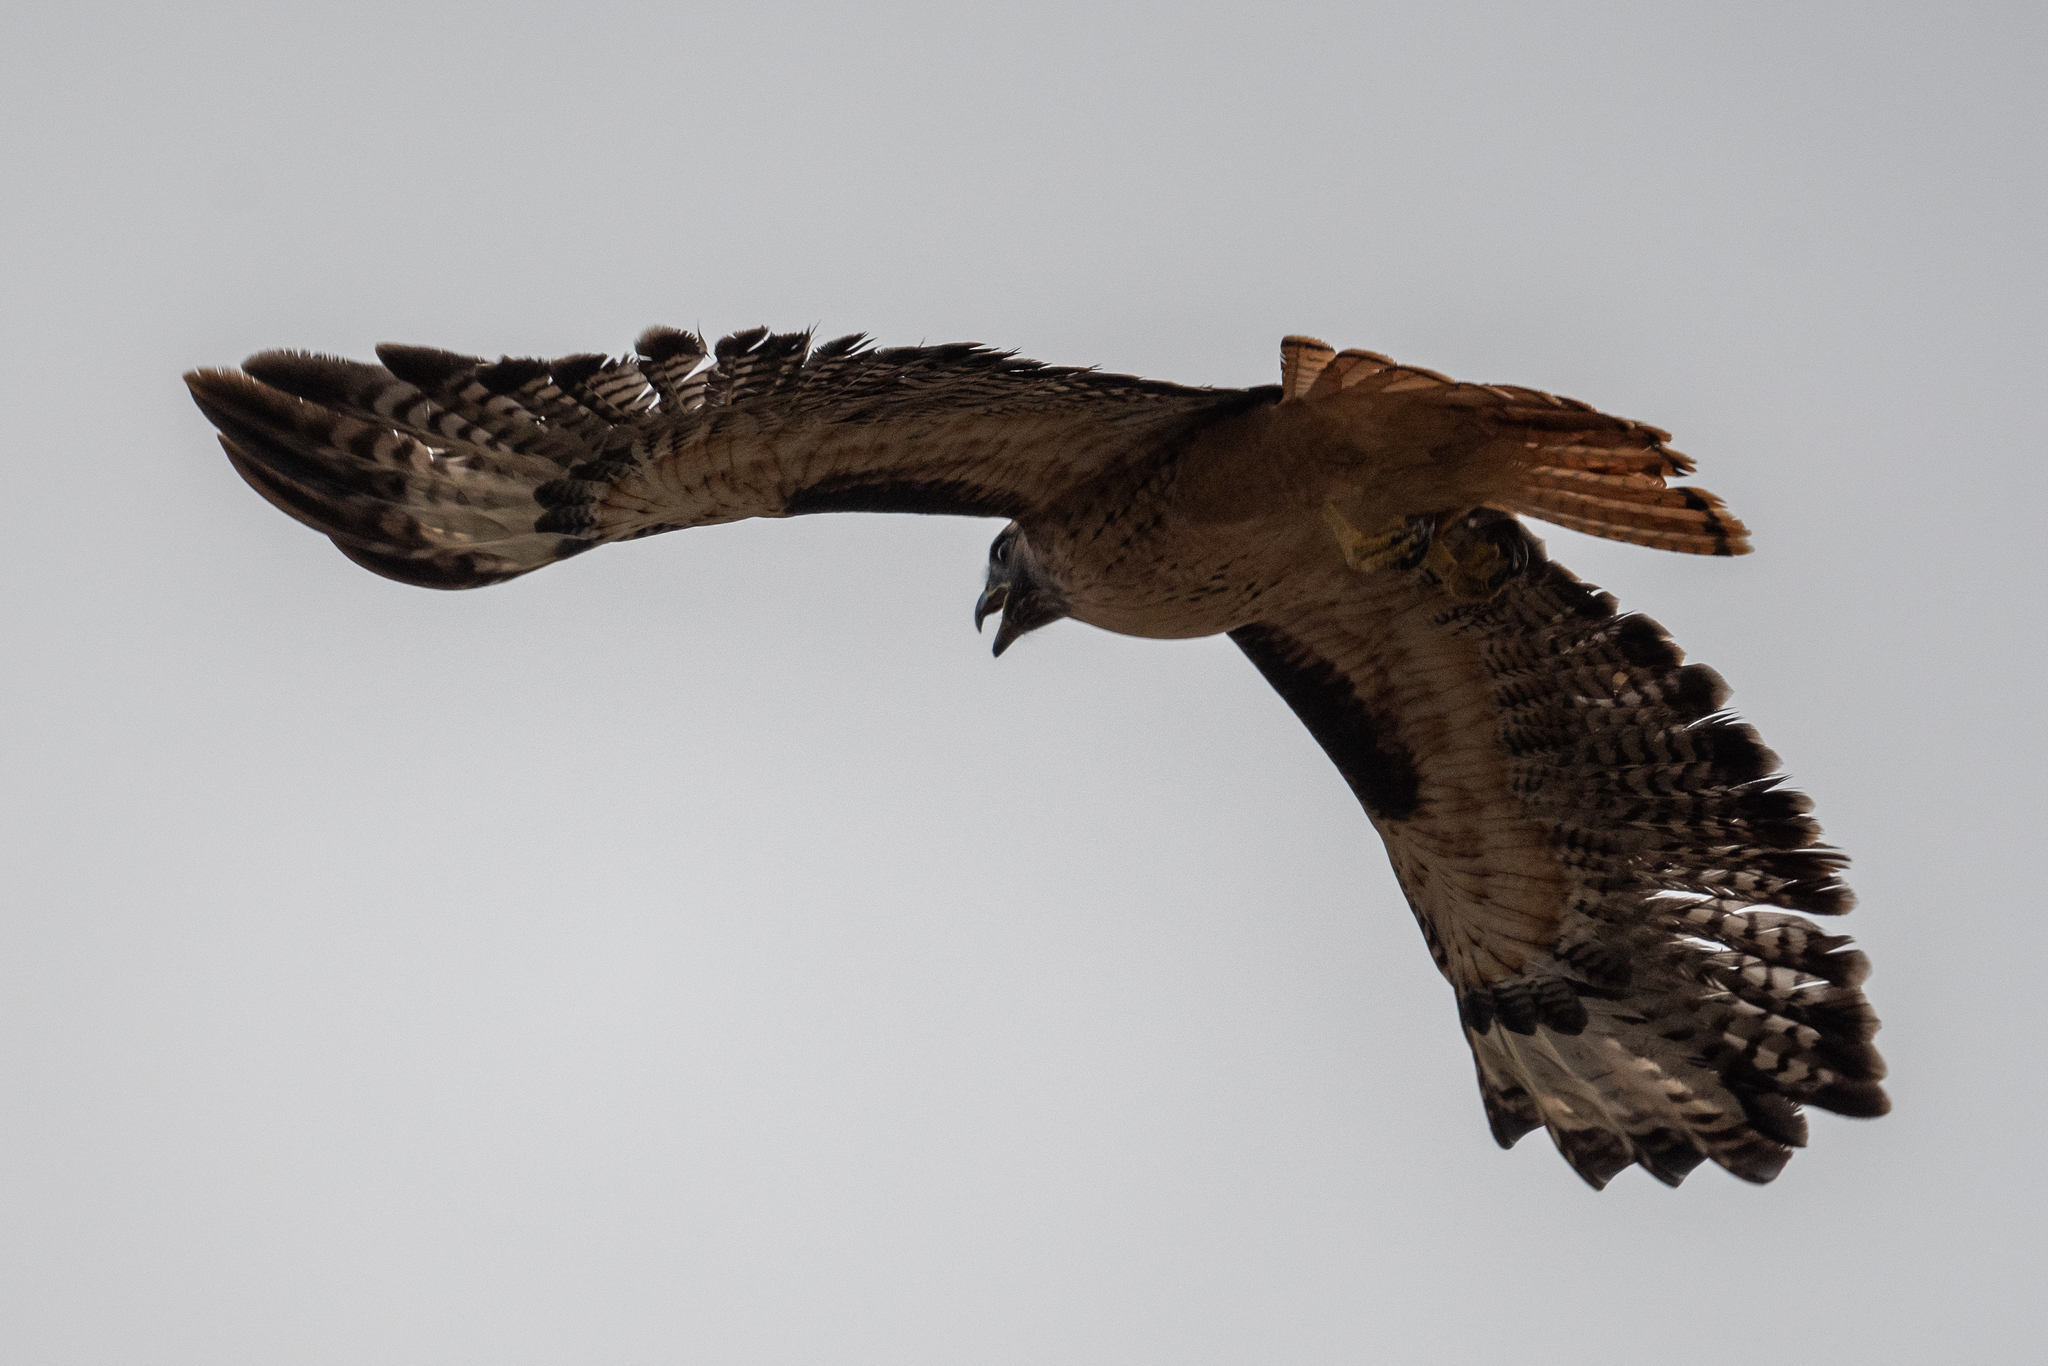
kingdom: Animalia
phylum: Chordata
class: Aves
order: Accipitriformes
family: Accipitridae
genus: Buteo
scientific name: Buteo jamaicensis
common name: Red-tailed hawk
